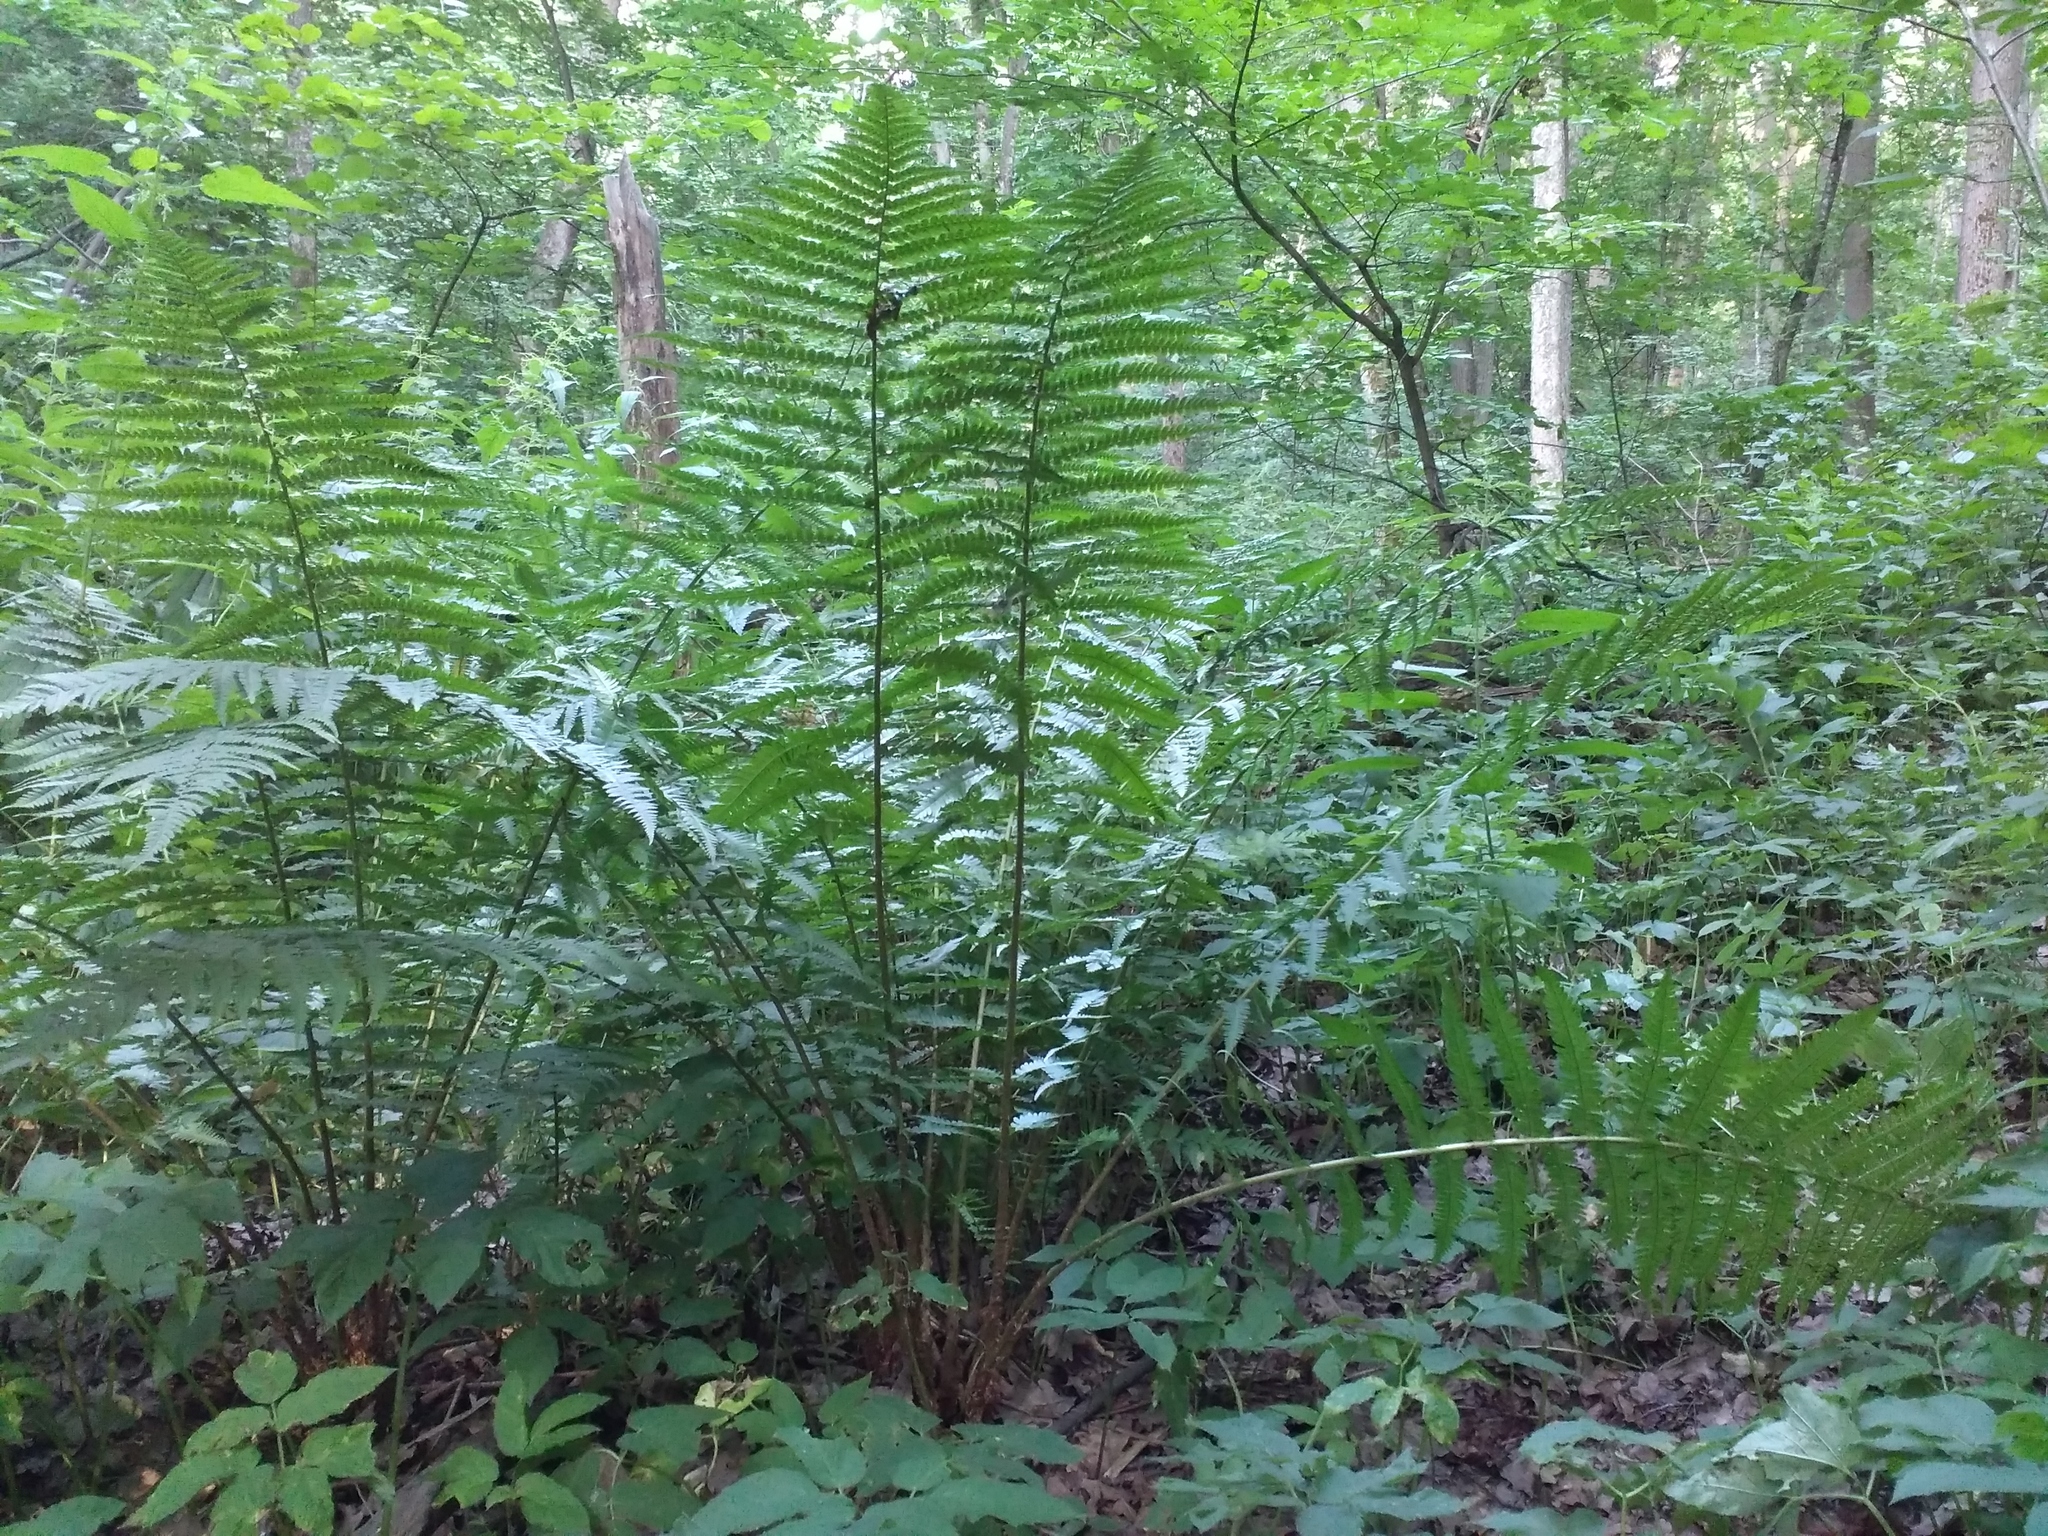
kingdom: Plantae
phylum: Tracheophyta
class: Polypodiopsida
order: Polypodiales
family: Dryopteridaceae
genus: Dryopteris
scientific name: Dryopteris filix-mas
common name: Male fern
